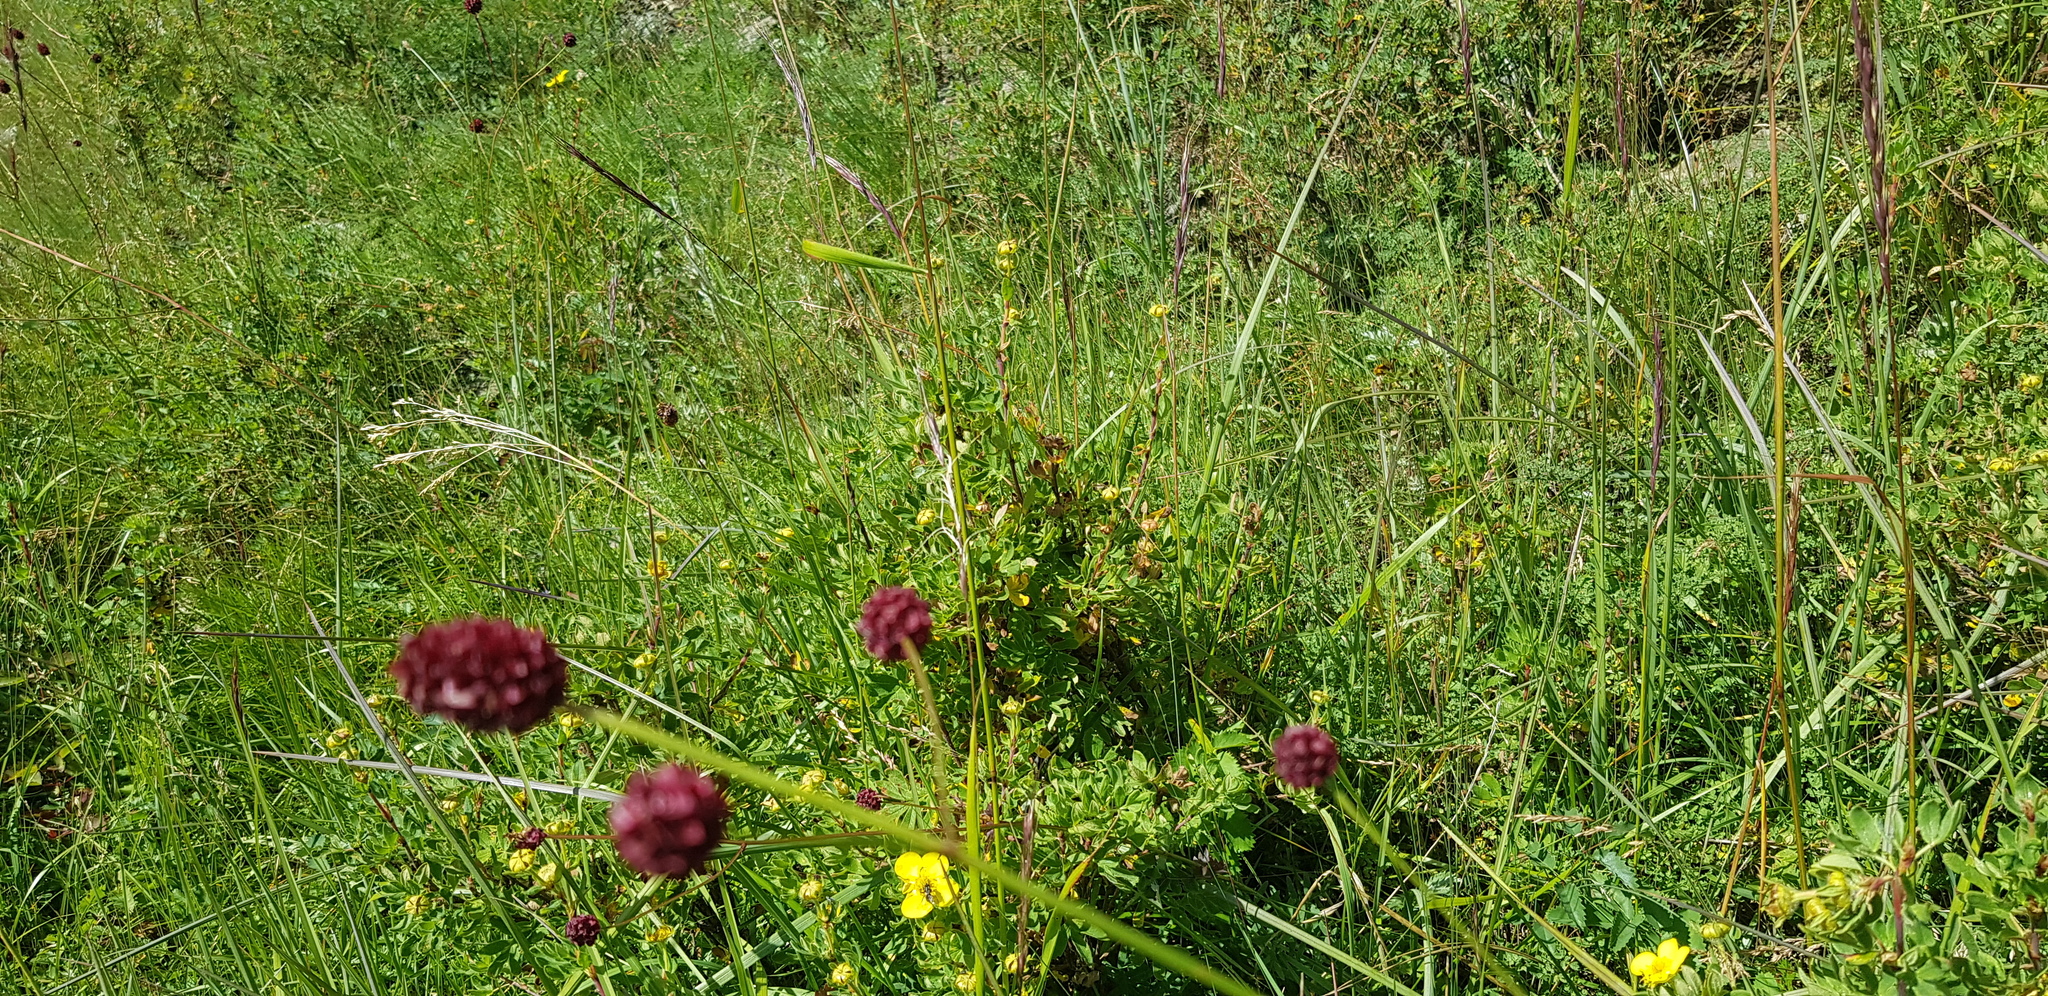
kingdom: Plantae
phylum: Tracheophyta
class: Magnoliopsida
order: Rosales
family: Rosaceae
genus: Sanguisorba
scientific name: Sanguisorba officinalis
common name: Great burnet
